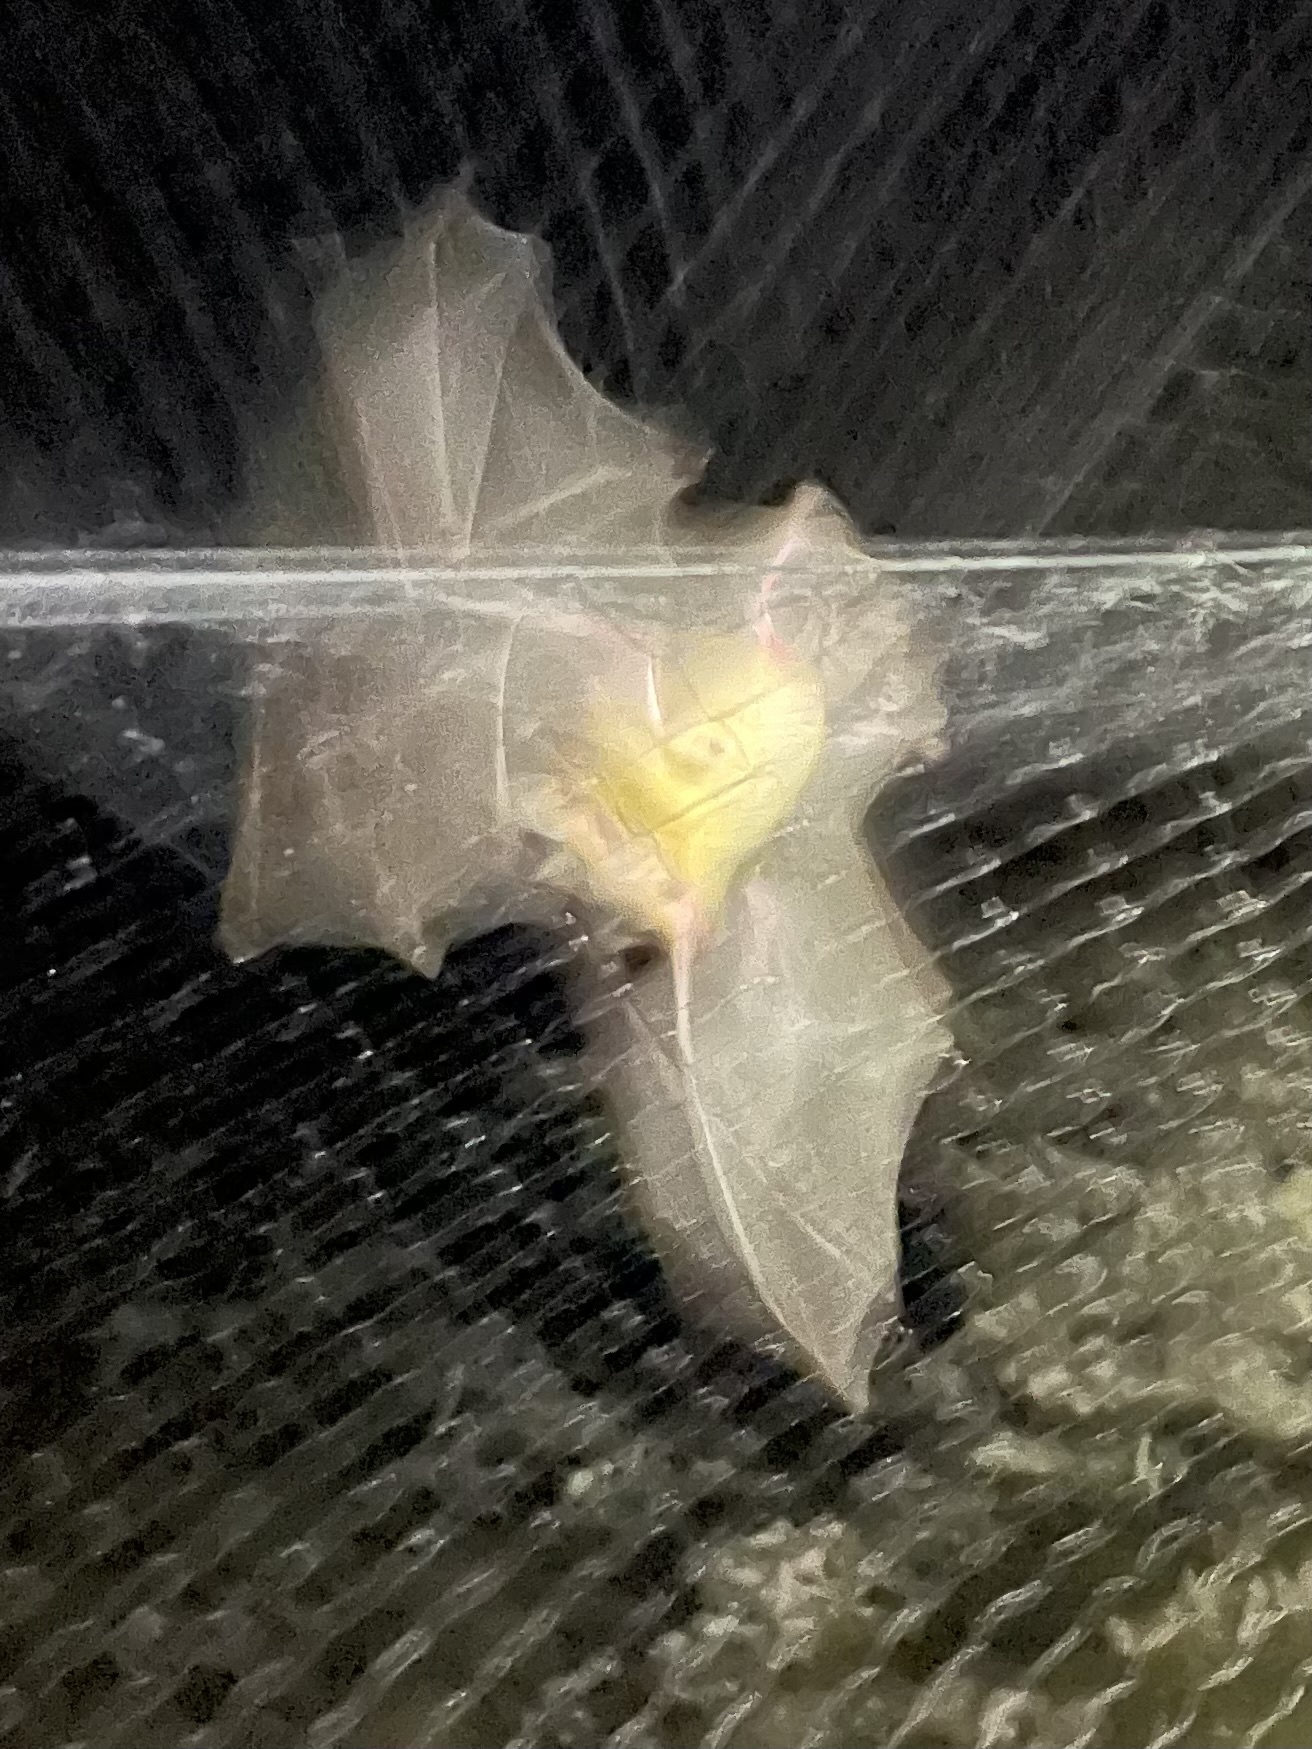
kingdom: Animalia
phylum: Chordata
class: Mammalia
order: Chiroptera
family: Vespertilionidae
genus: Antrozous
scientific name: Antrozous pallidus
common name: Pallid bat
